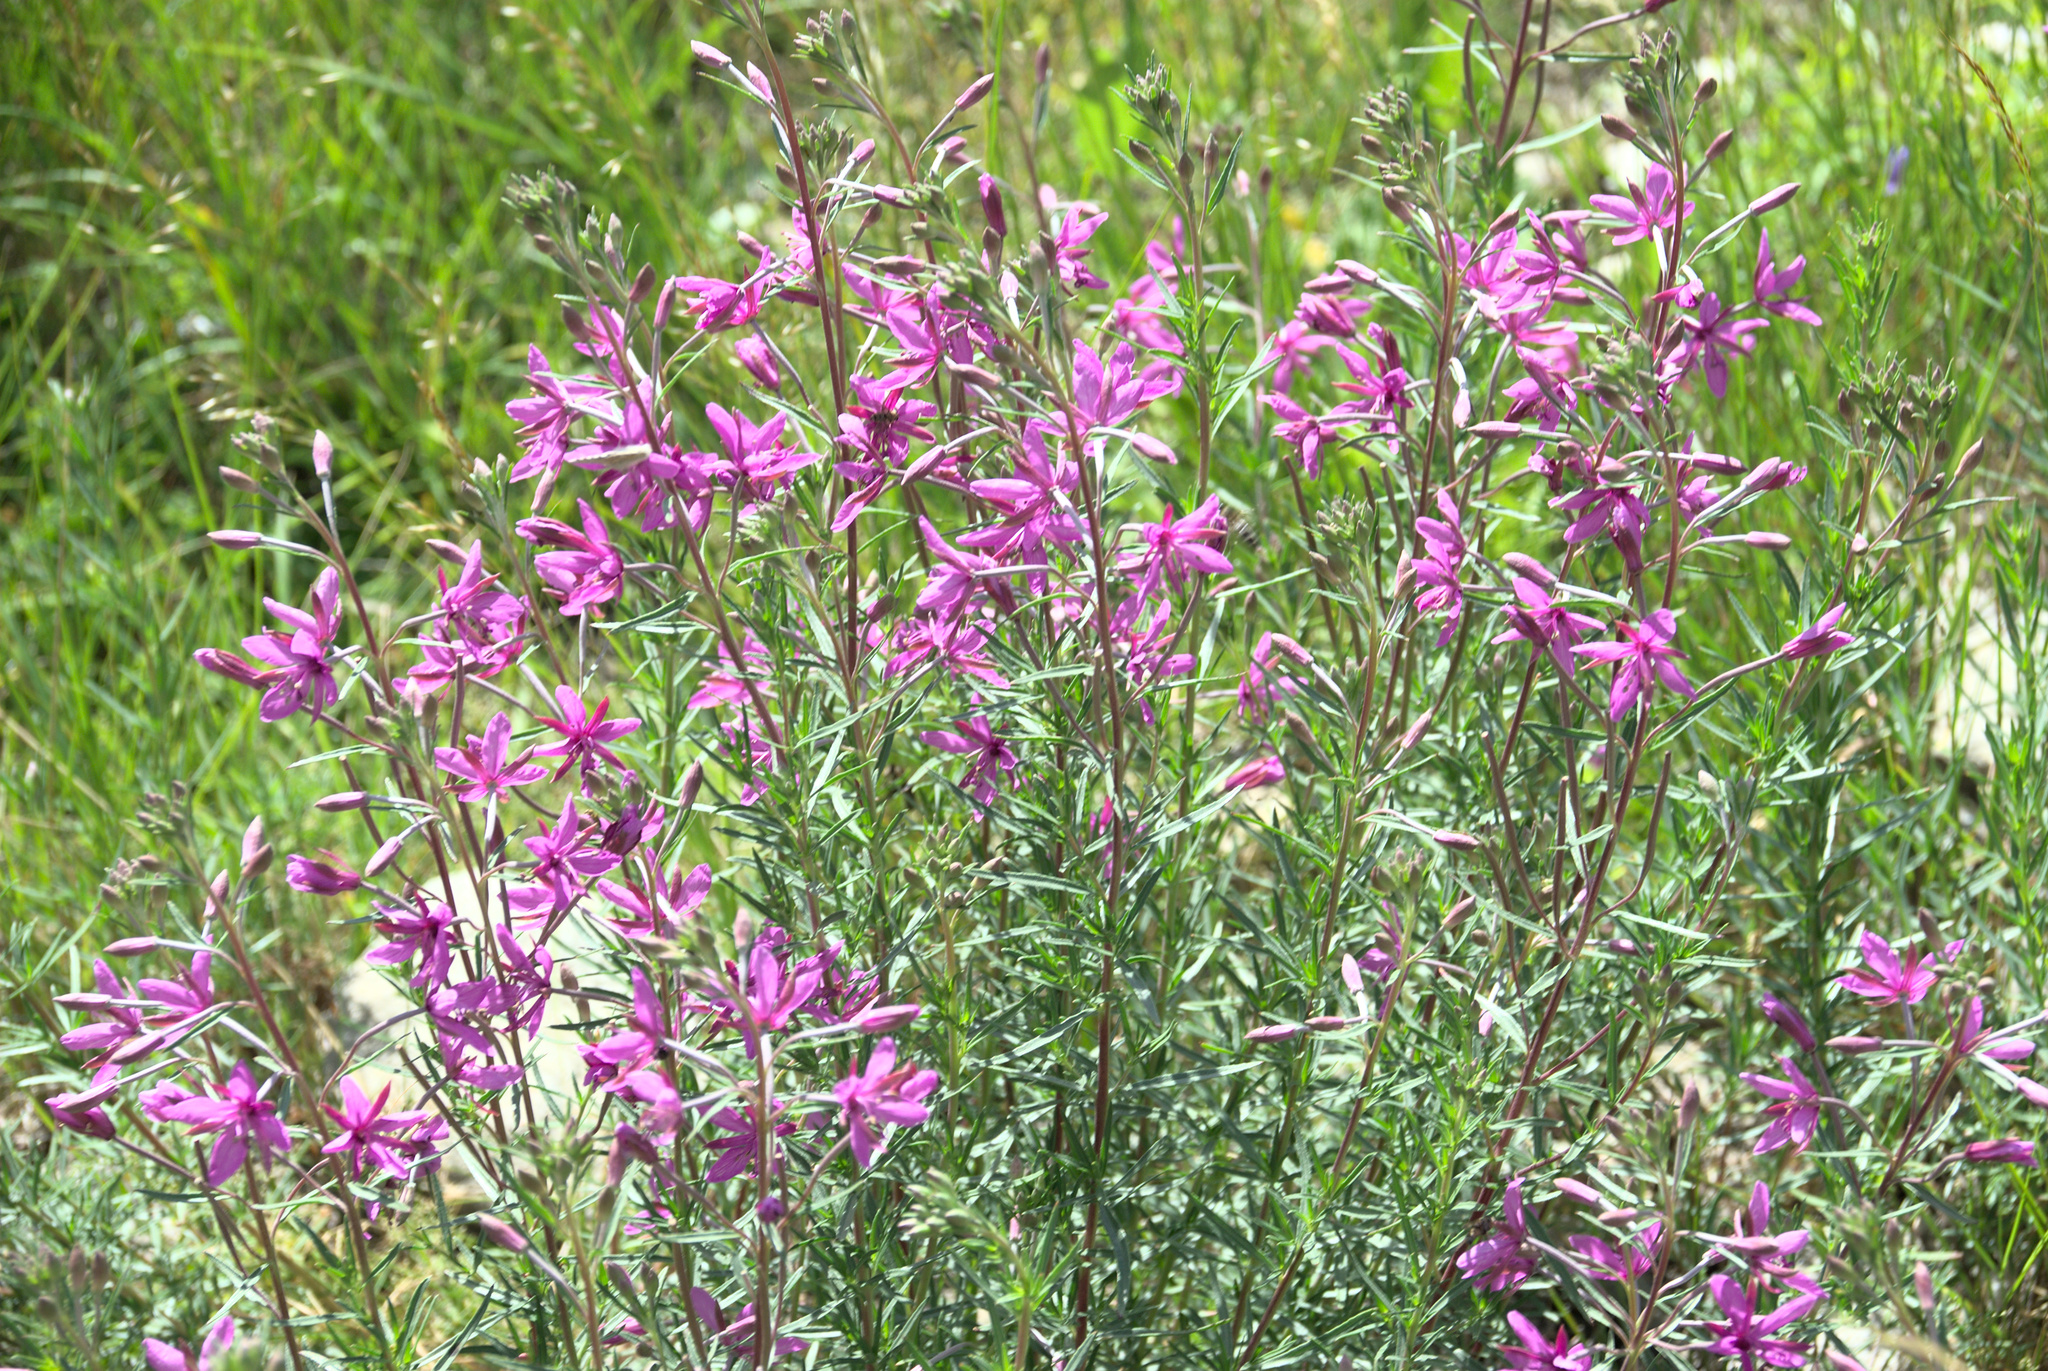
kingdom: Plantae
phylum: Tracheophyta
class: Magnoliopsida
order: Myrtales
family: Onagraceae
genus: Chamaenerion
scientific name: Chamaenerion dodonaei
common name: Rosemary-leaved willowherb
